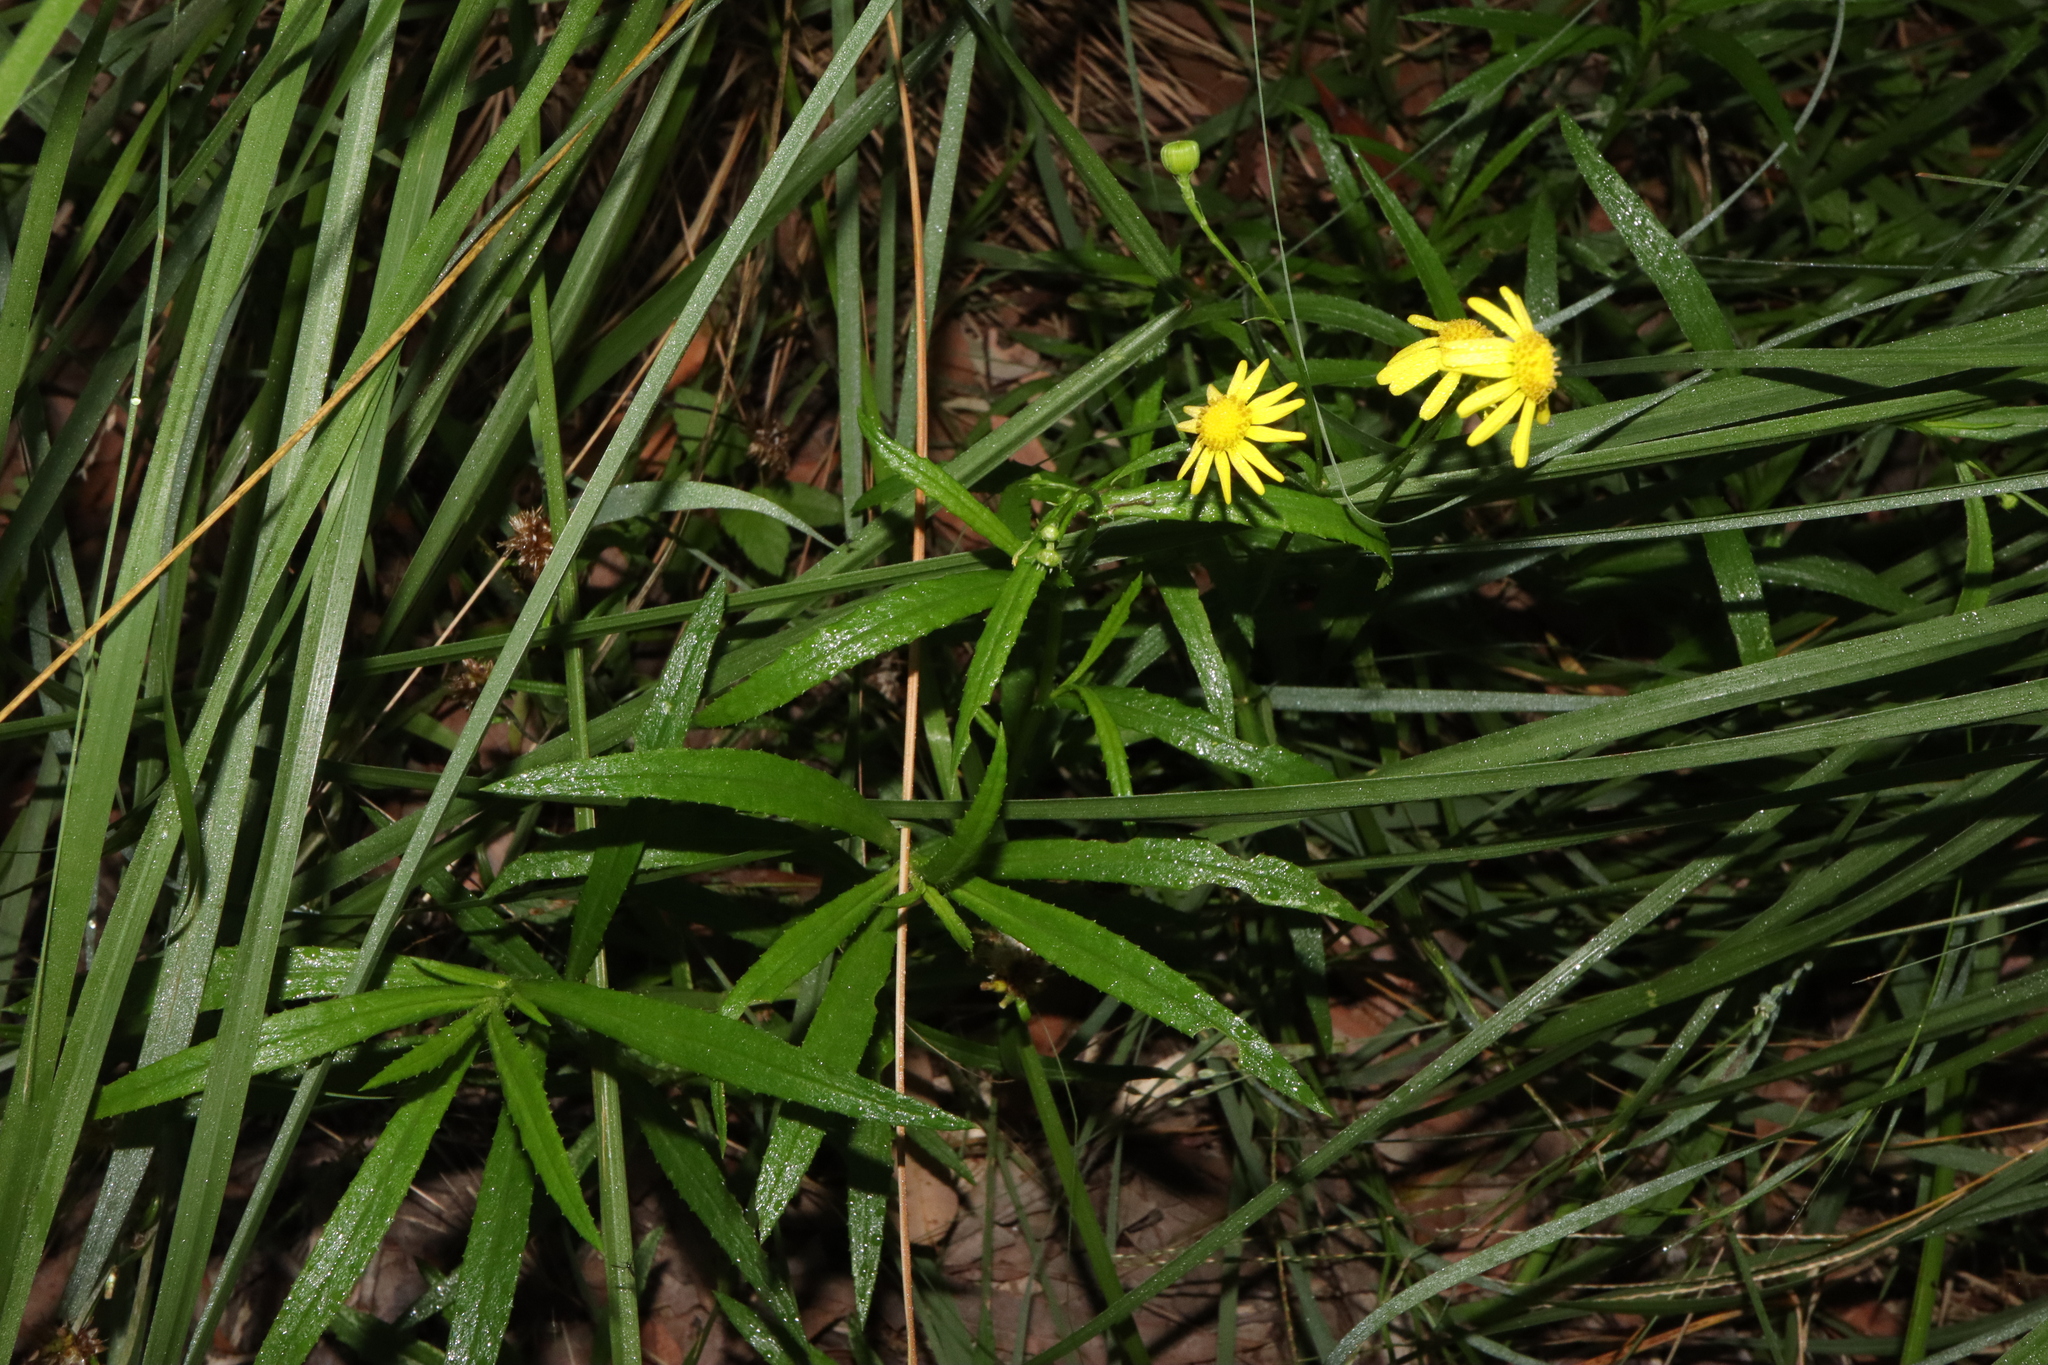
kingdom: Plantae
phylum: Tracheophyta
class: Magnoliopsida
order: Asterales
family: Asteraceae
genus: Senecio
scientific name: Senecio madagascariensis
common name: Madagascar ragwort
